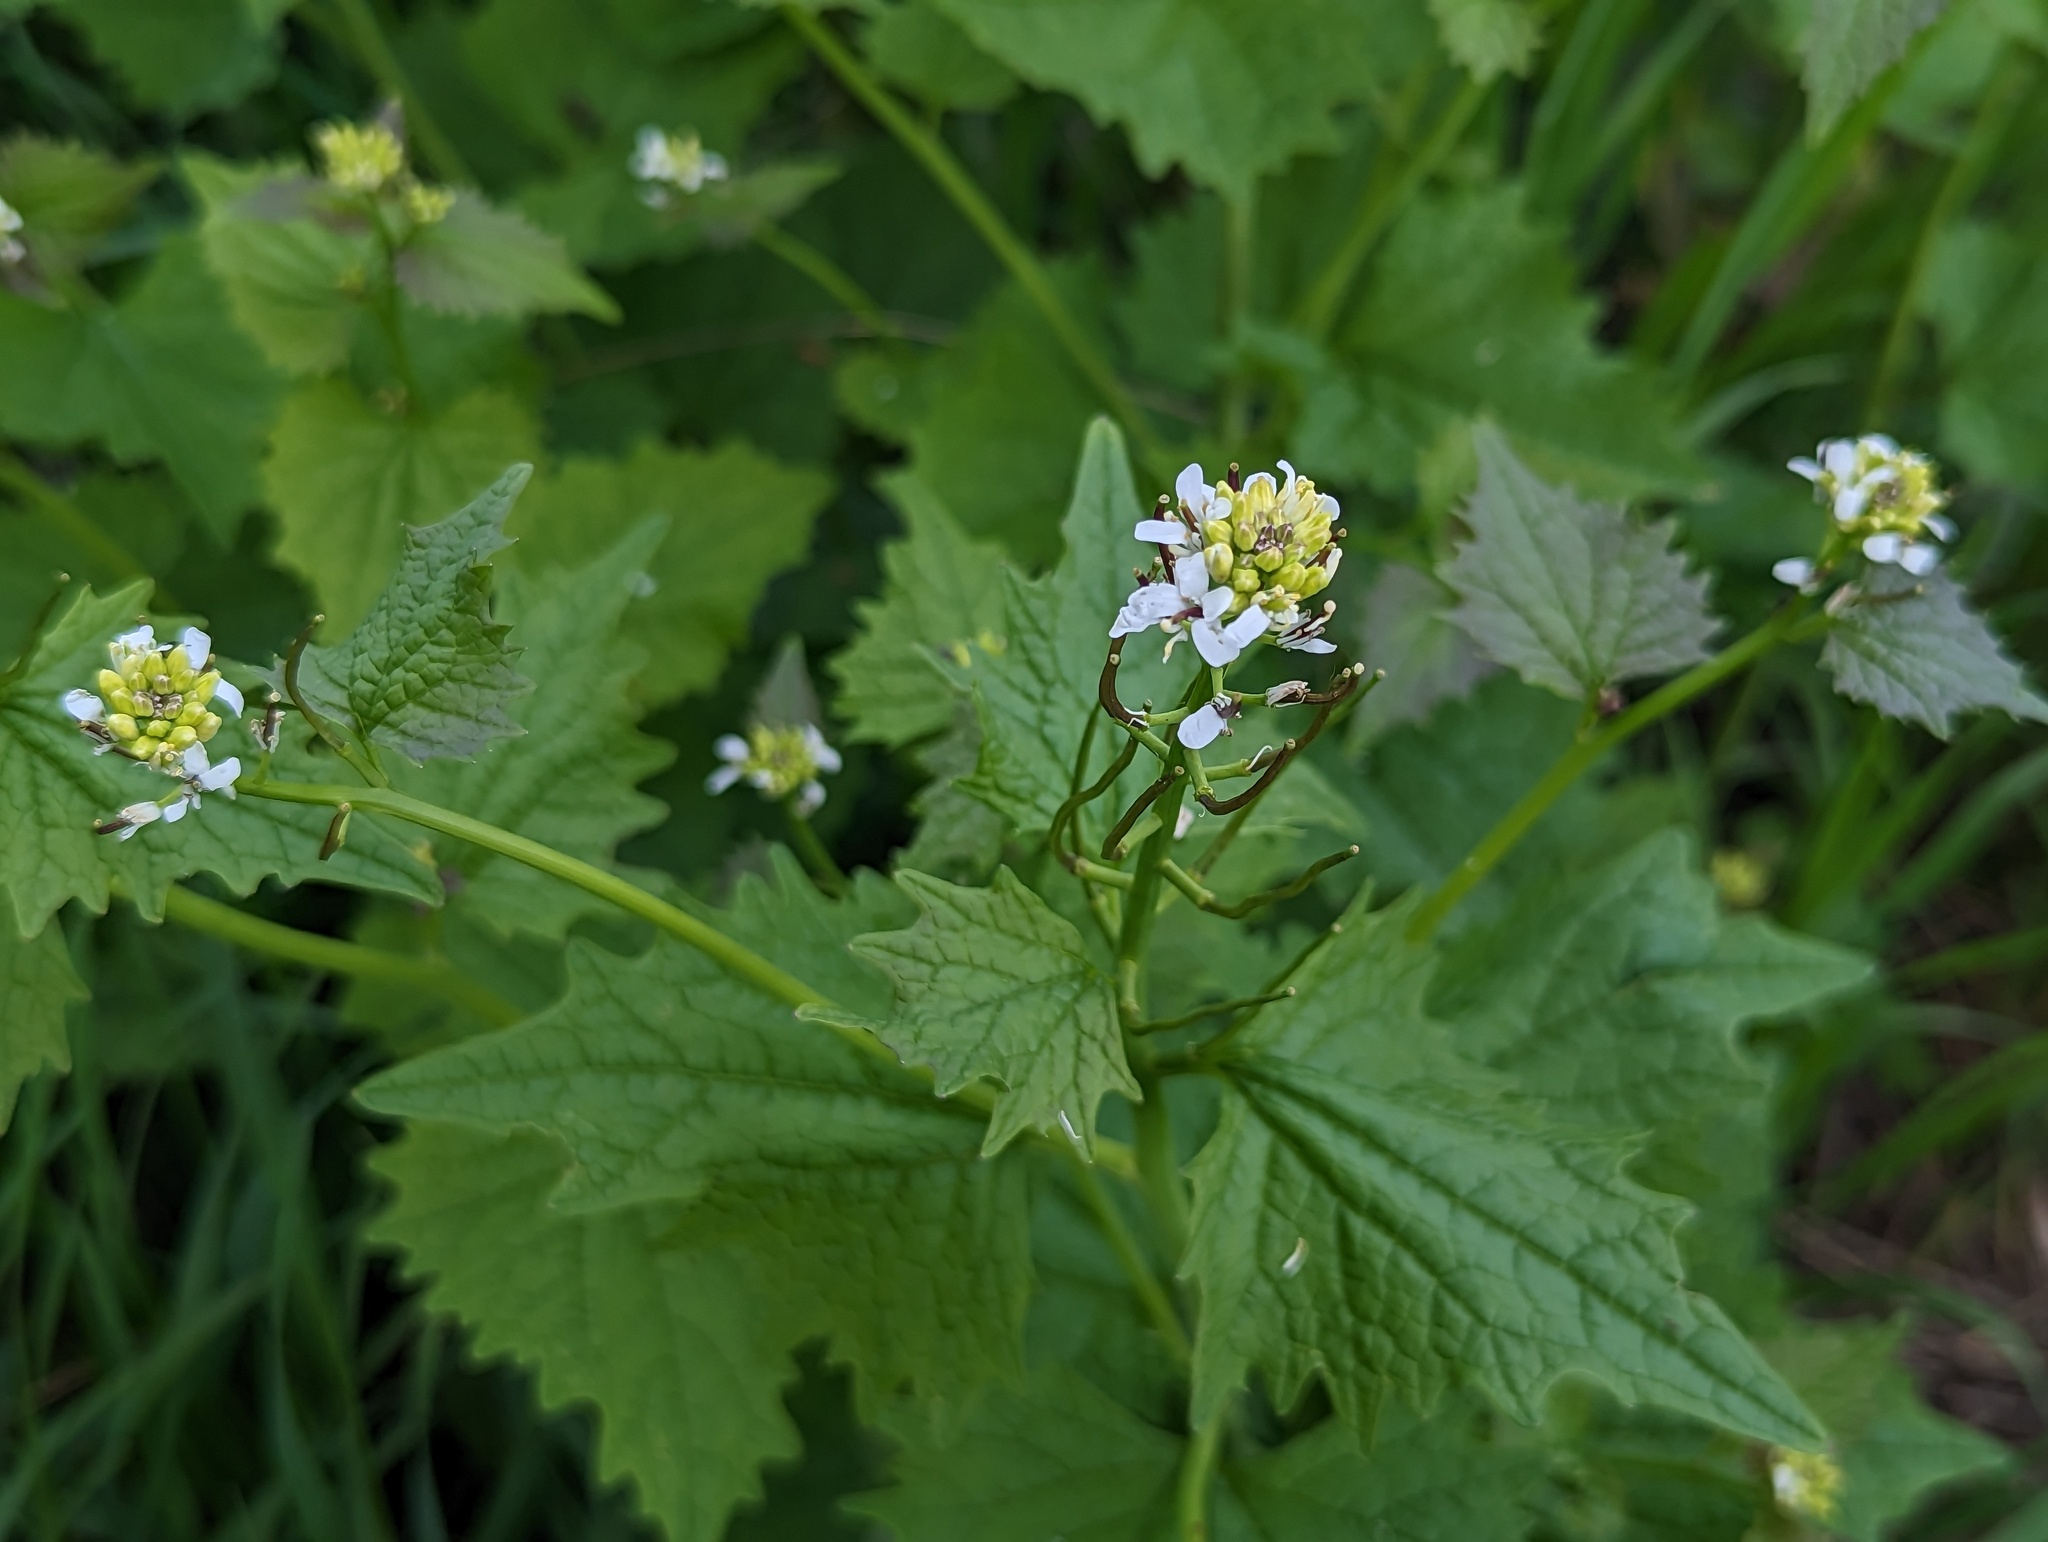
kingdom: Plantae
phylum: Tracheophyta
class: Magnoliopsida
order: Brassicales
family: Brassicaceae
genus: Alliaria
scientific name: Alliaria petiolata
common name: Garlic mustard
